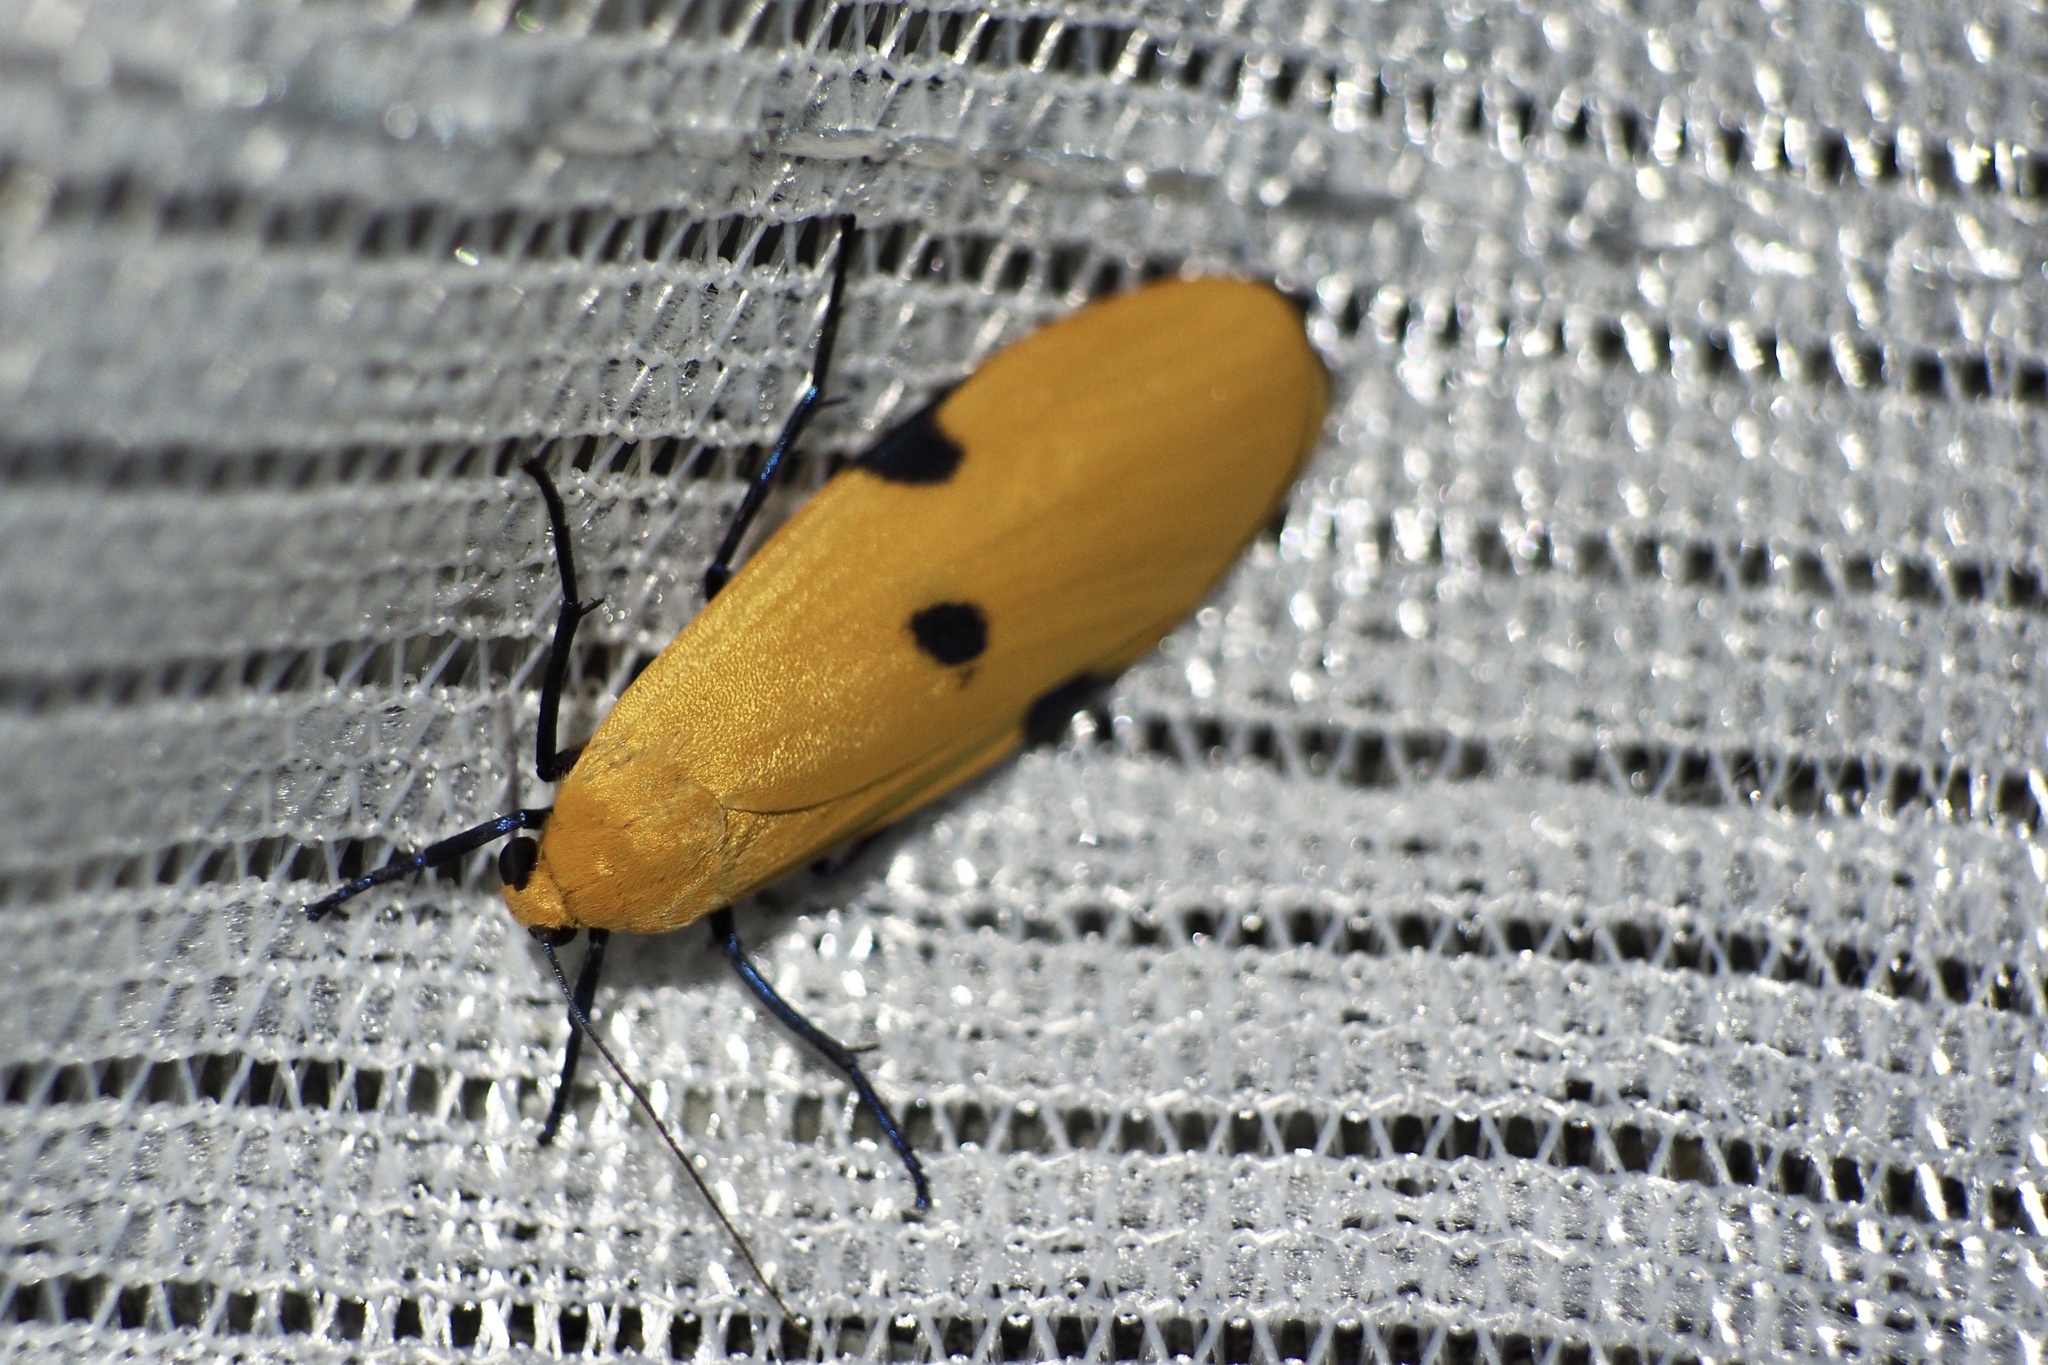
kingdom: Animalia
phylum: Arthropoda
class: Insecta
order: Lepidoptera
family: Erebidae
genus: Conilepia
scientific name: Conilepia nigricosta
